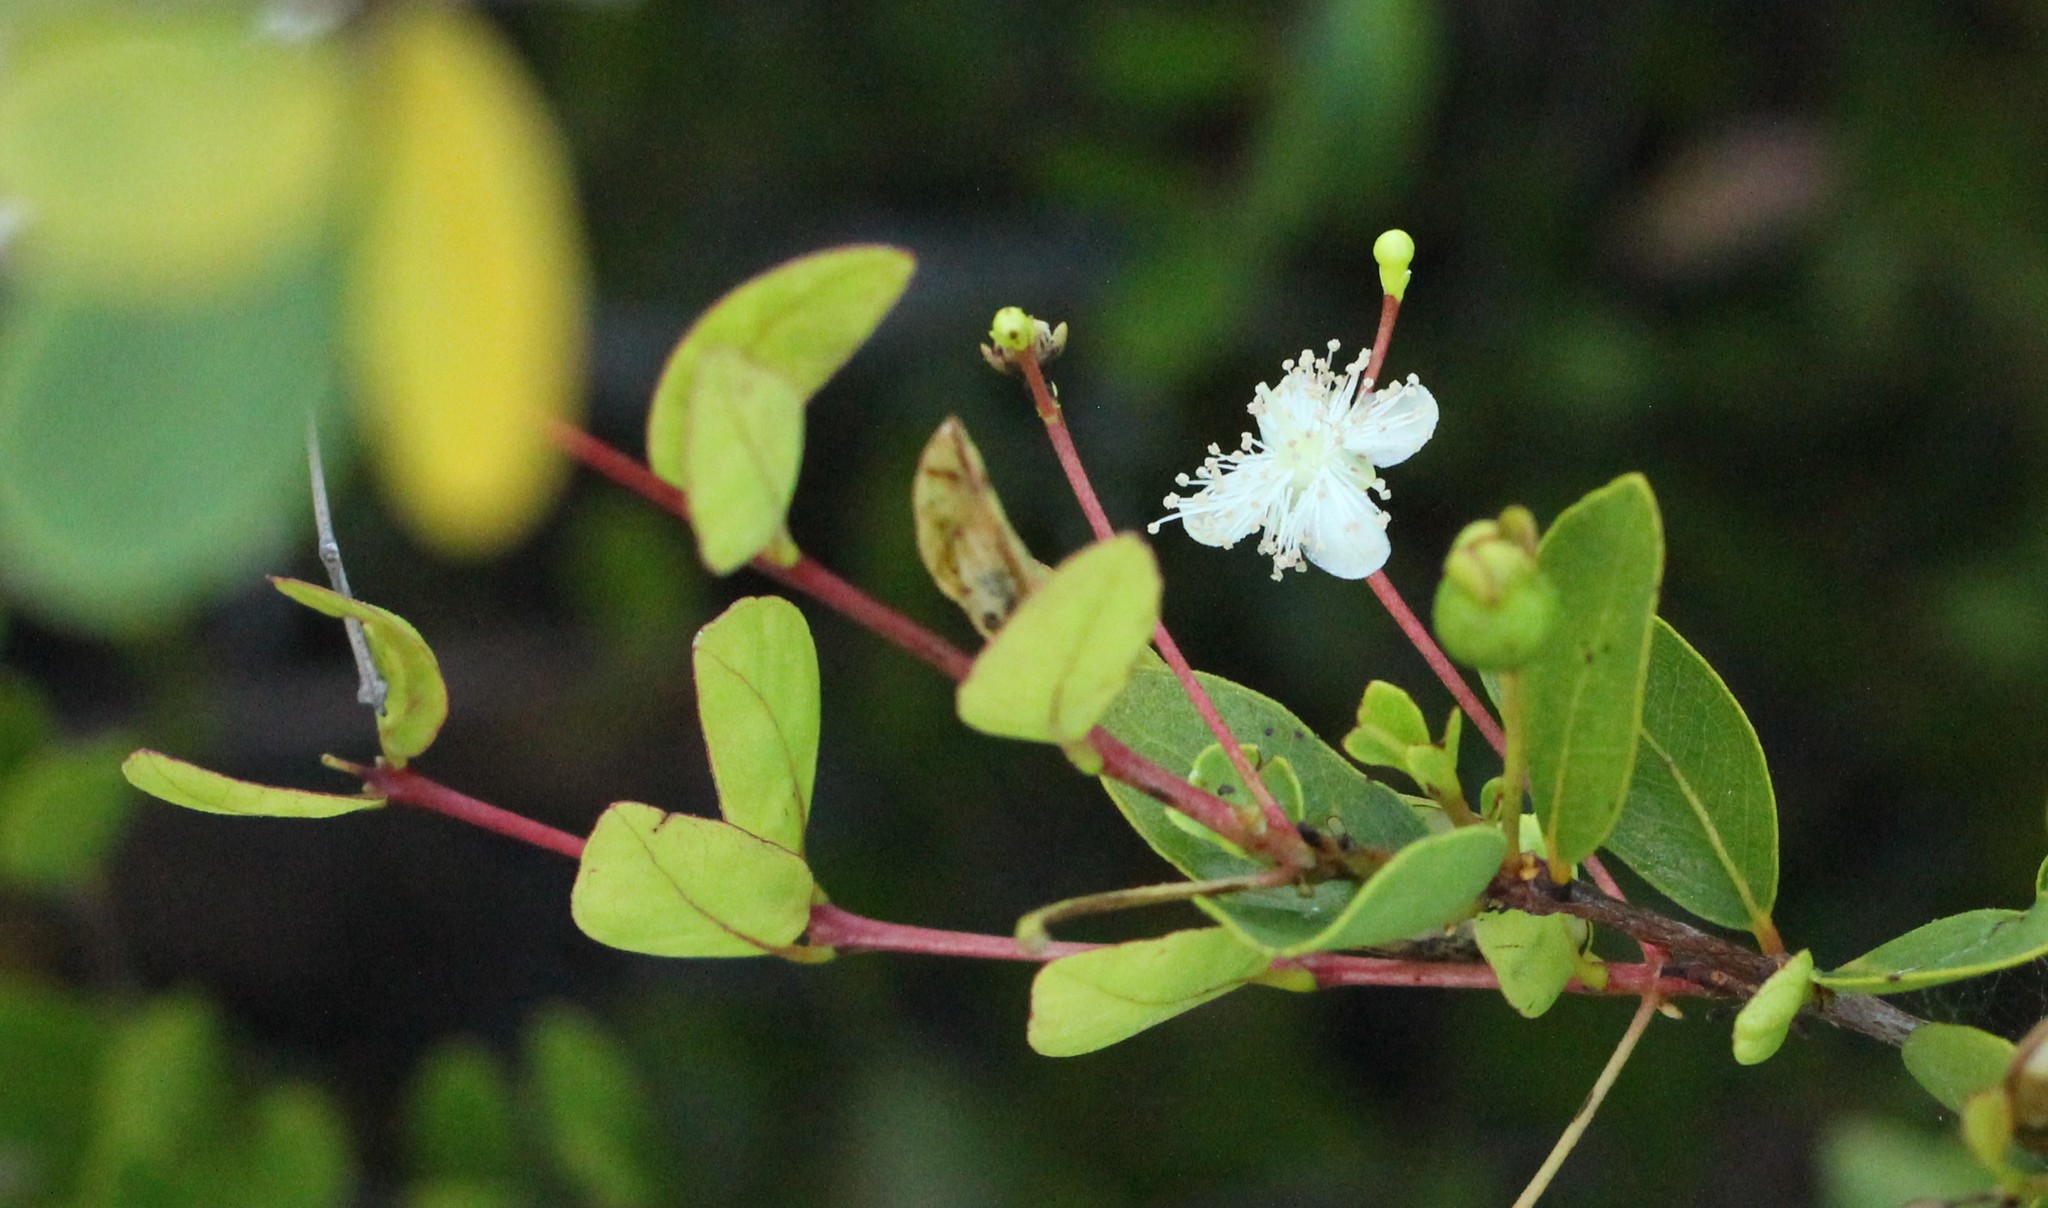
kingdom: Plantae
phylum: Tracheophyta
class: Magnoliopsida
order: Myrtales
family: Myrtaceae
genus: Mosiera
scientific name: Mosiera longipes
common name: Bahama stopper
